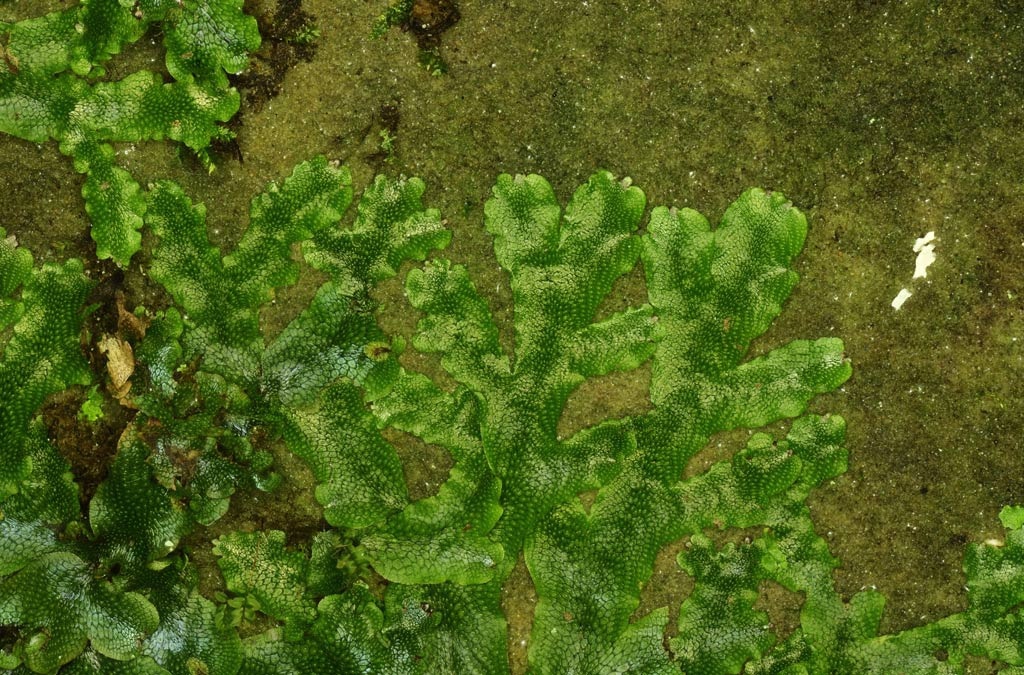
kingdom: Plantae
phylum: Marchantiophyta
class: Marchantiopsida
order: Marchantiales
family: Conocephalaceae
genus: Conocephalum
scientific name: Conocephalum conicum
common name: Great scented liverwort
